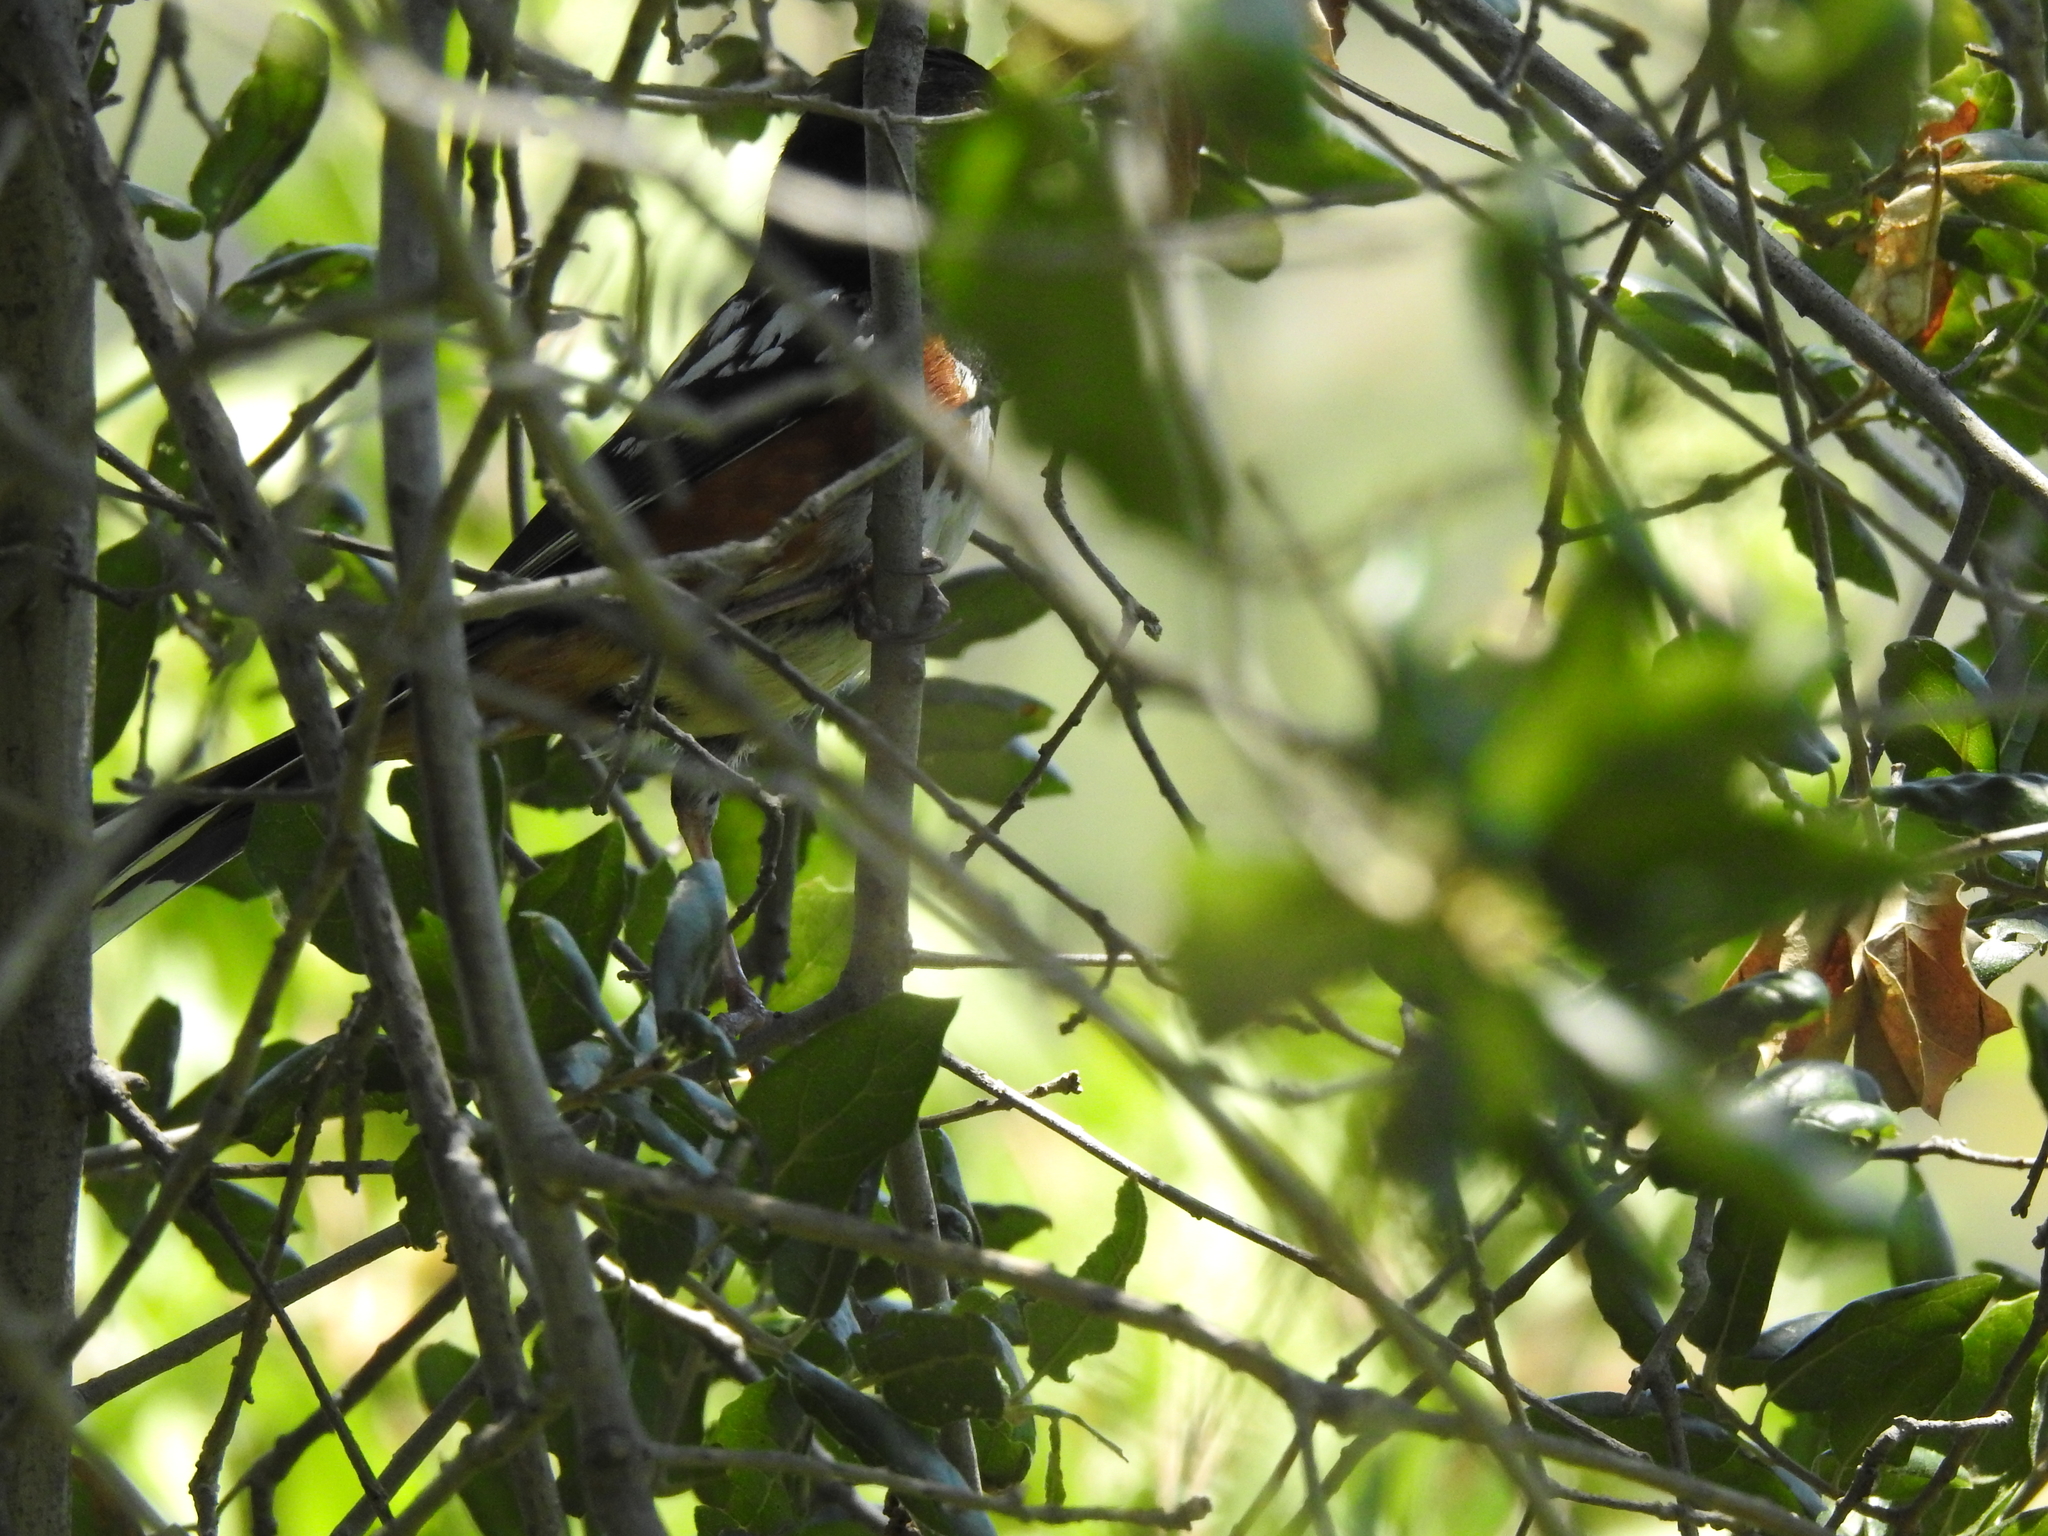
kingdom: Animalia
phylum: Chordata
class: Aves
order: Passeriformes
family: Passerellidae
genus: Pipilo
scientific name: Pipilo maculatus
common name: Spotted towhee
